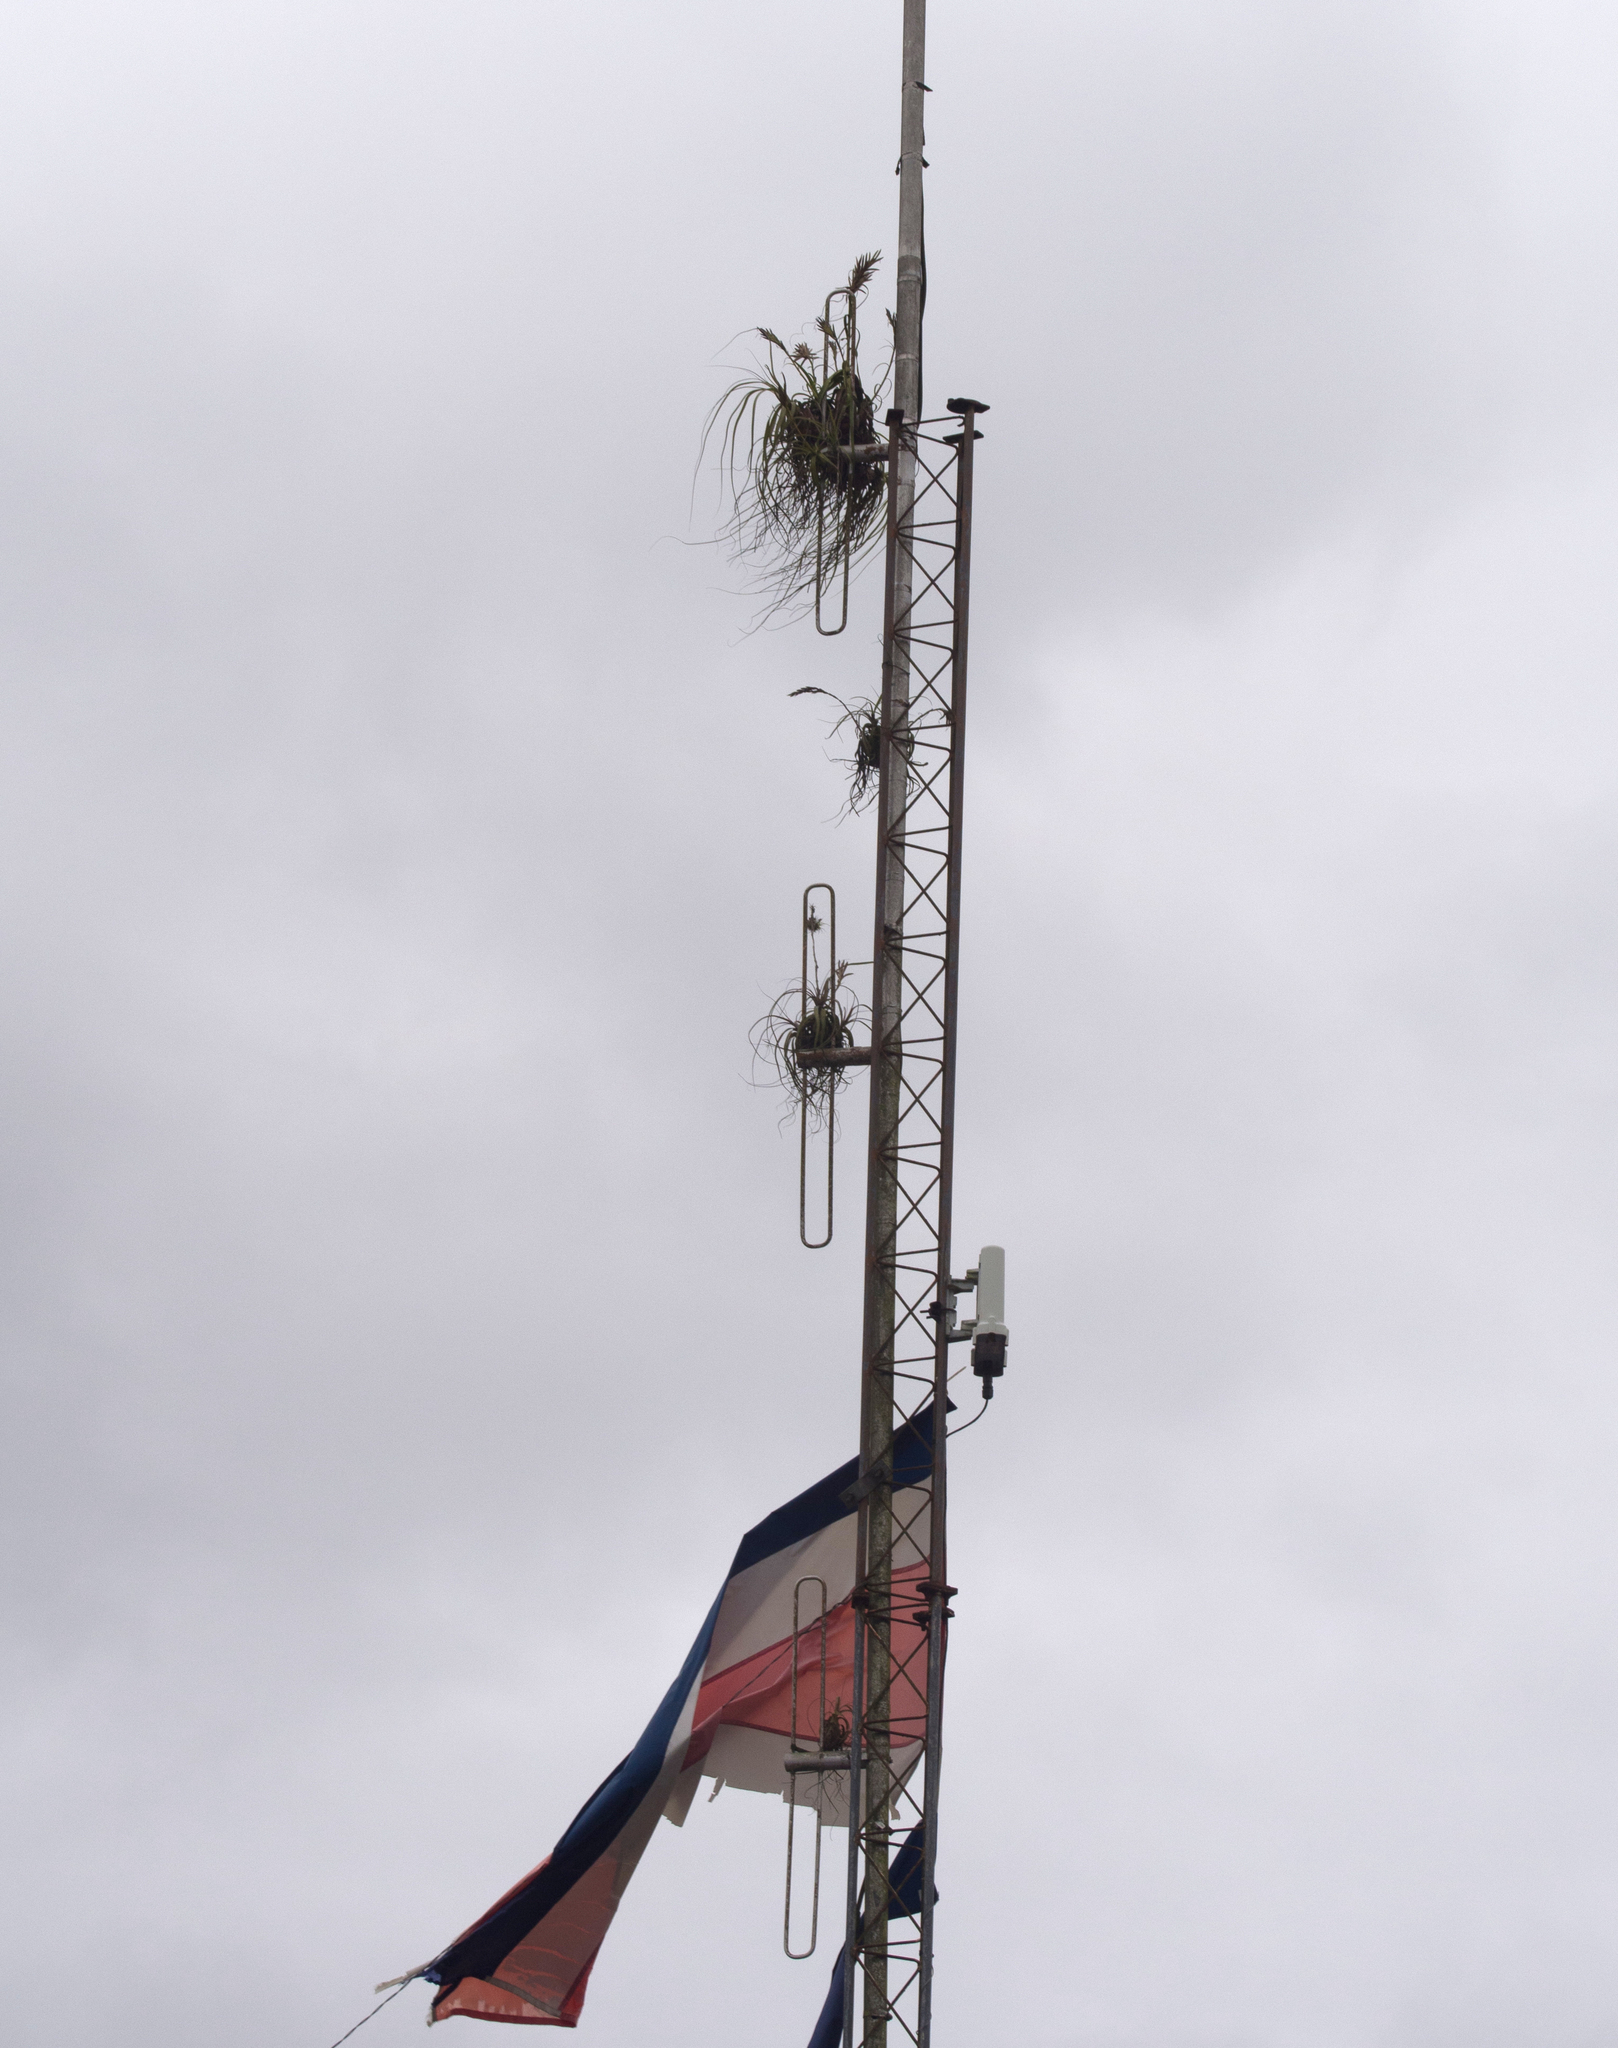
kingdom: Plantae
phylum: Tracheophyta
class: Liliopsida
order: Poales
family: Bromeliaceae
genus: Tillandsia
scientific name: Tillandsia
